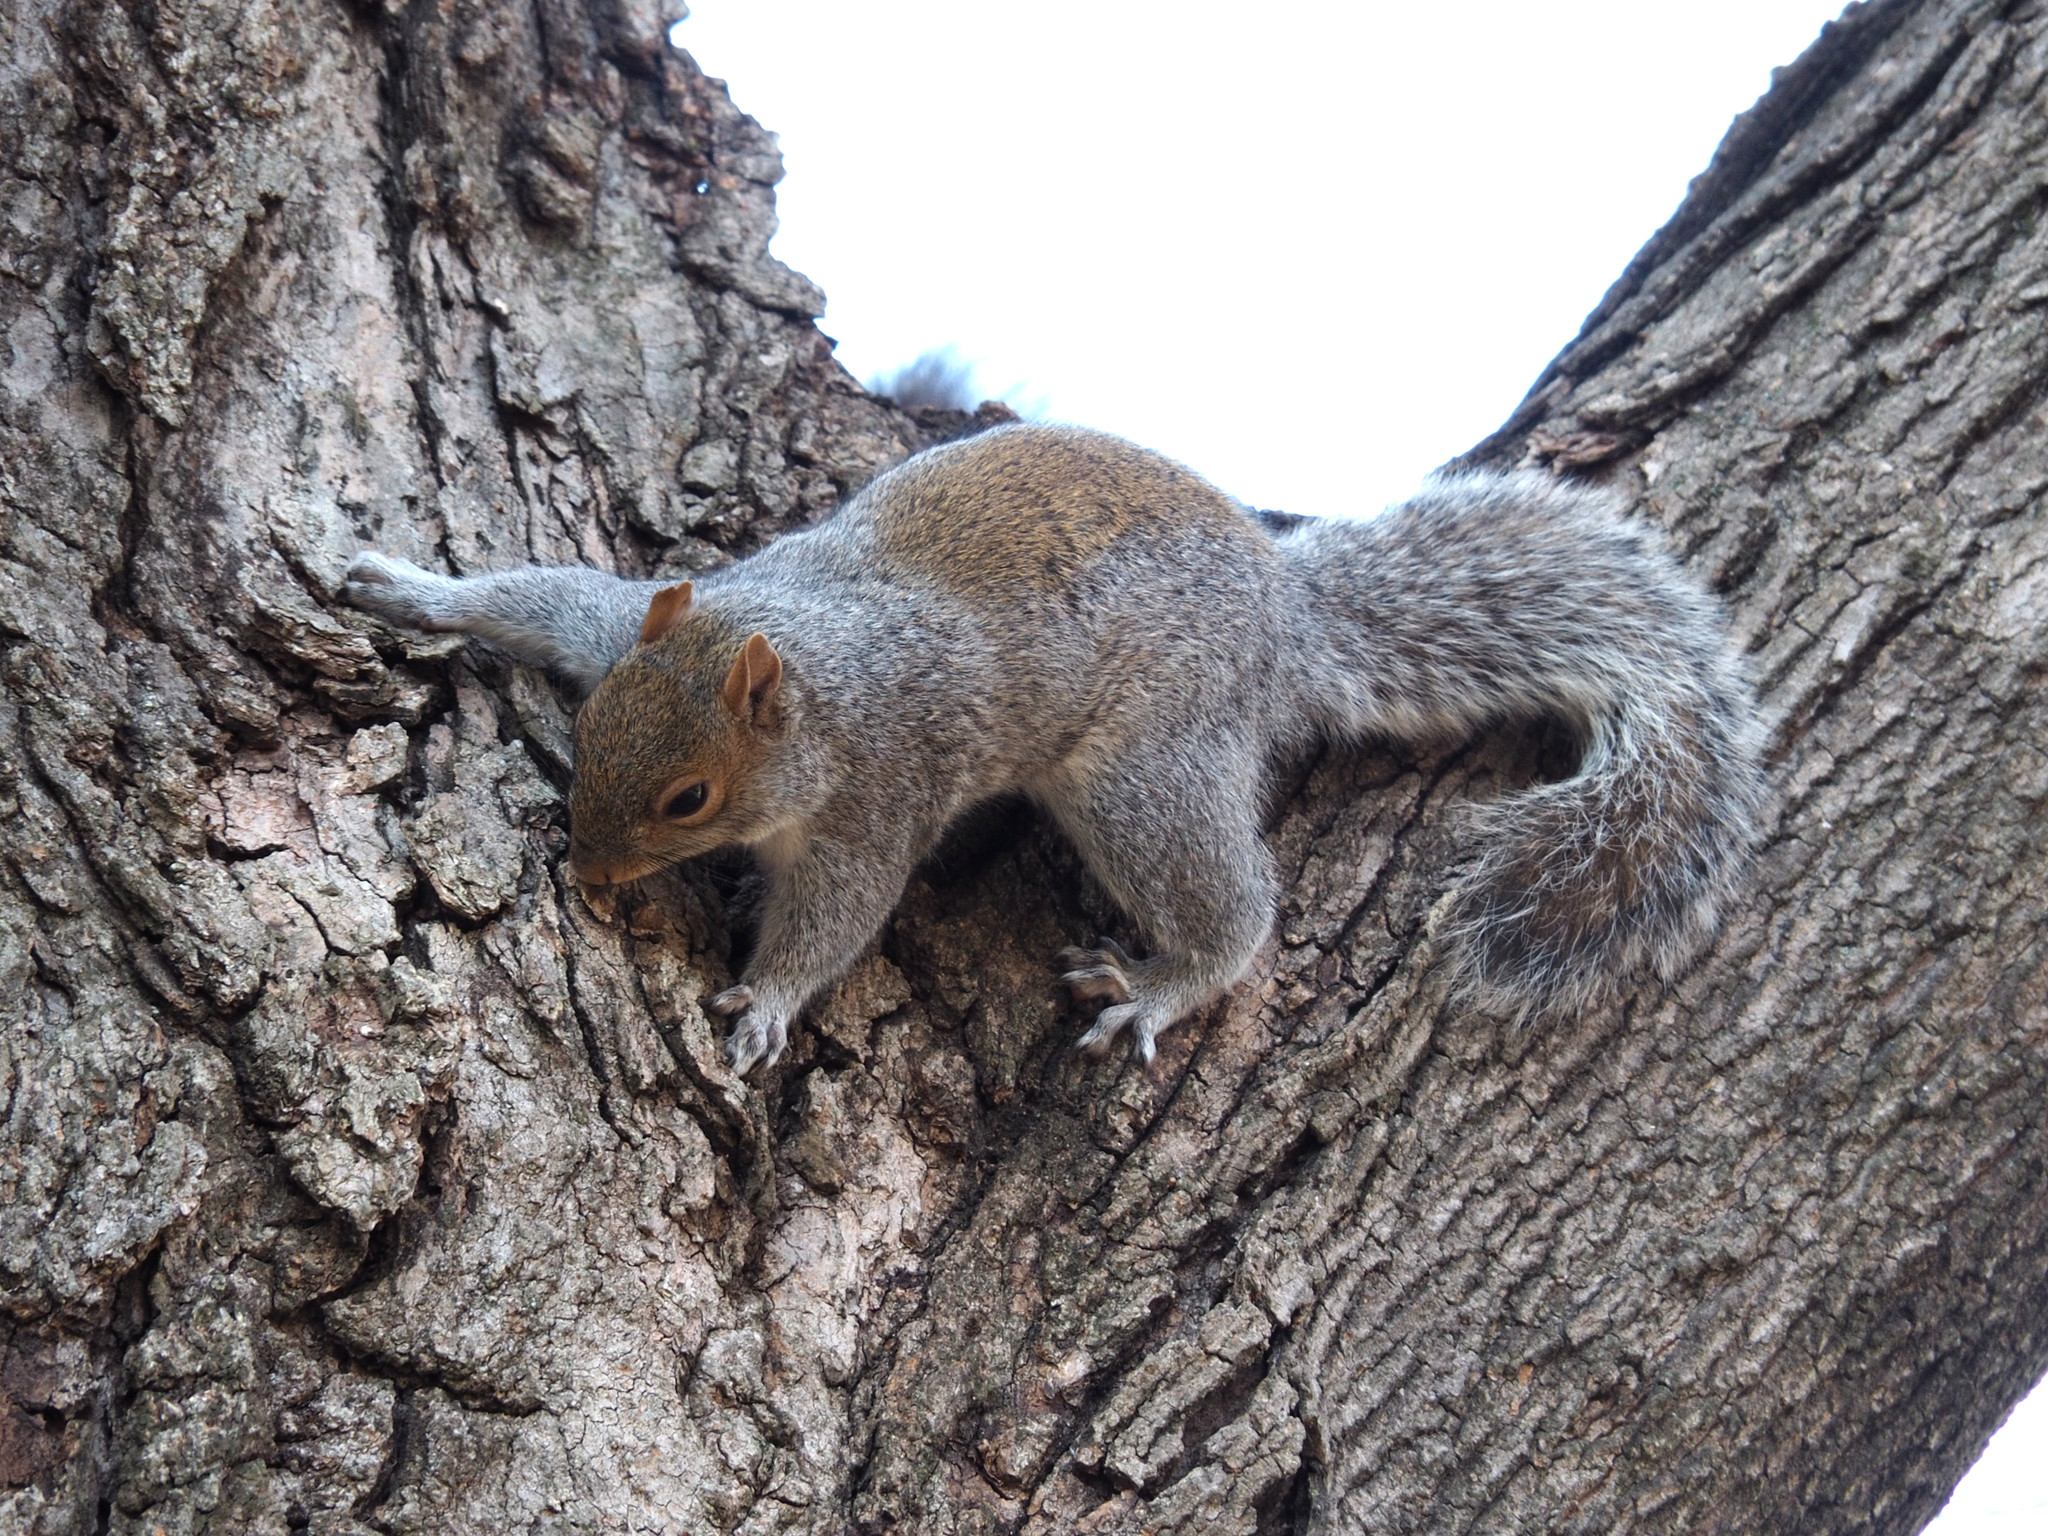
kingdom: Animalia
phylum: Chordata
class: Mammalia
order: Rodentia
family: Sciuridae
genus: Sciurus
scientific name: Sciurus carolinensis
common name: Eastern gray squirrel
